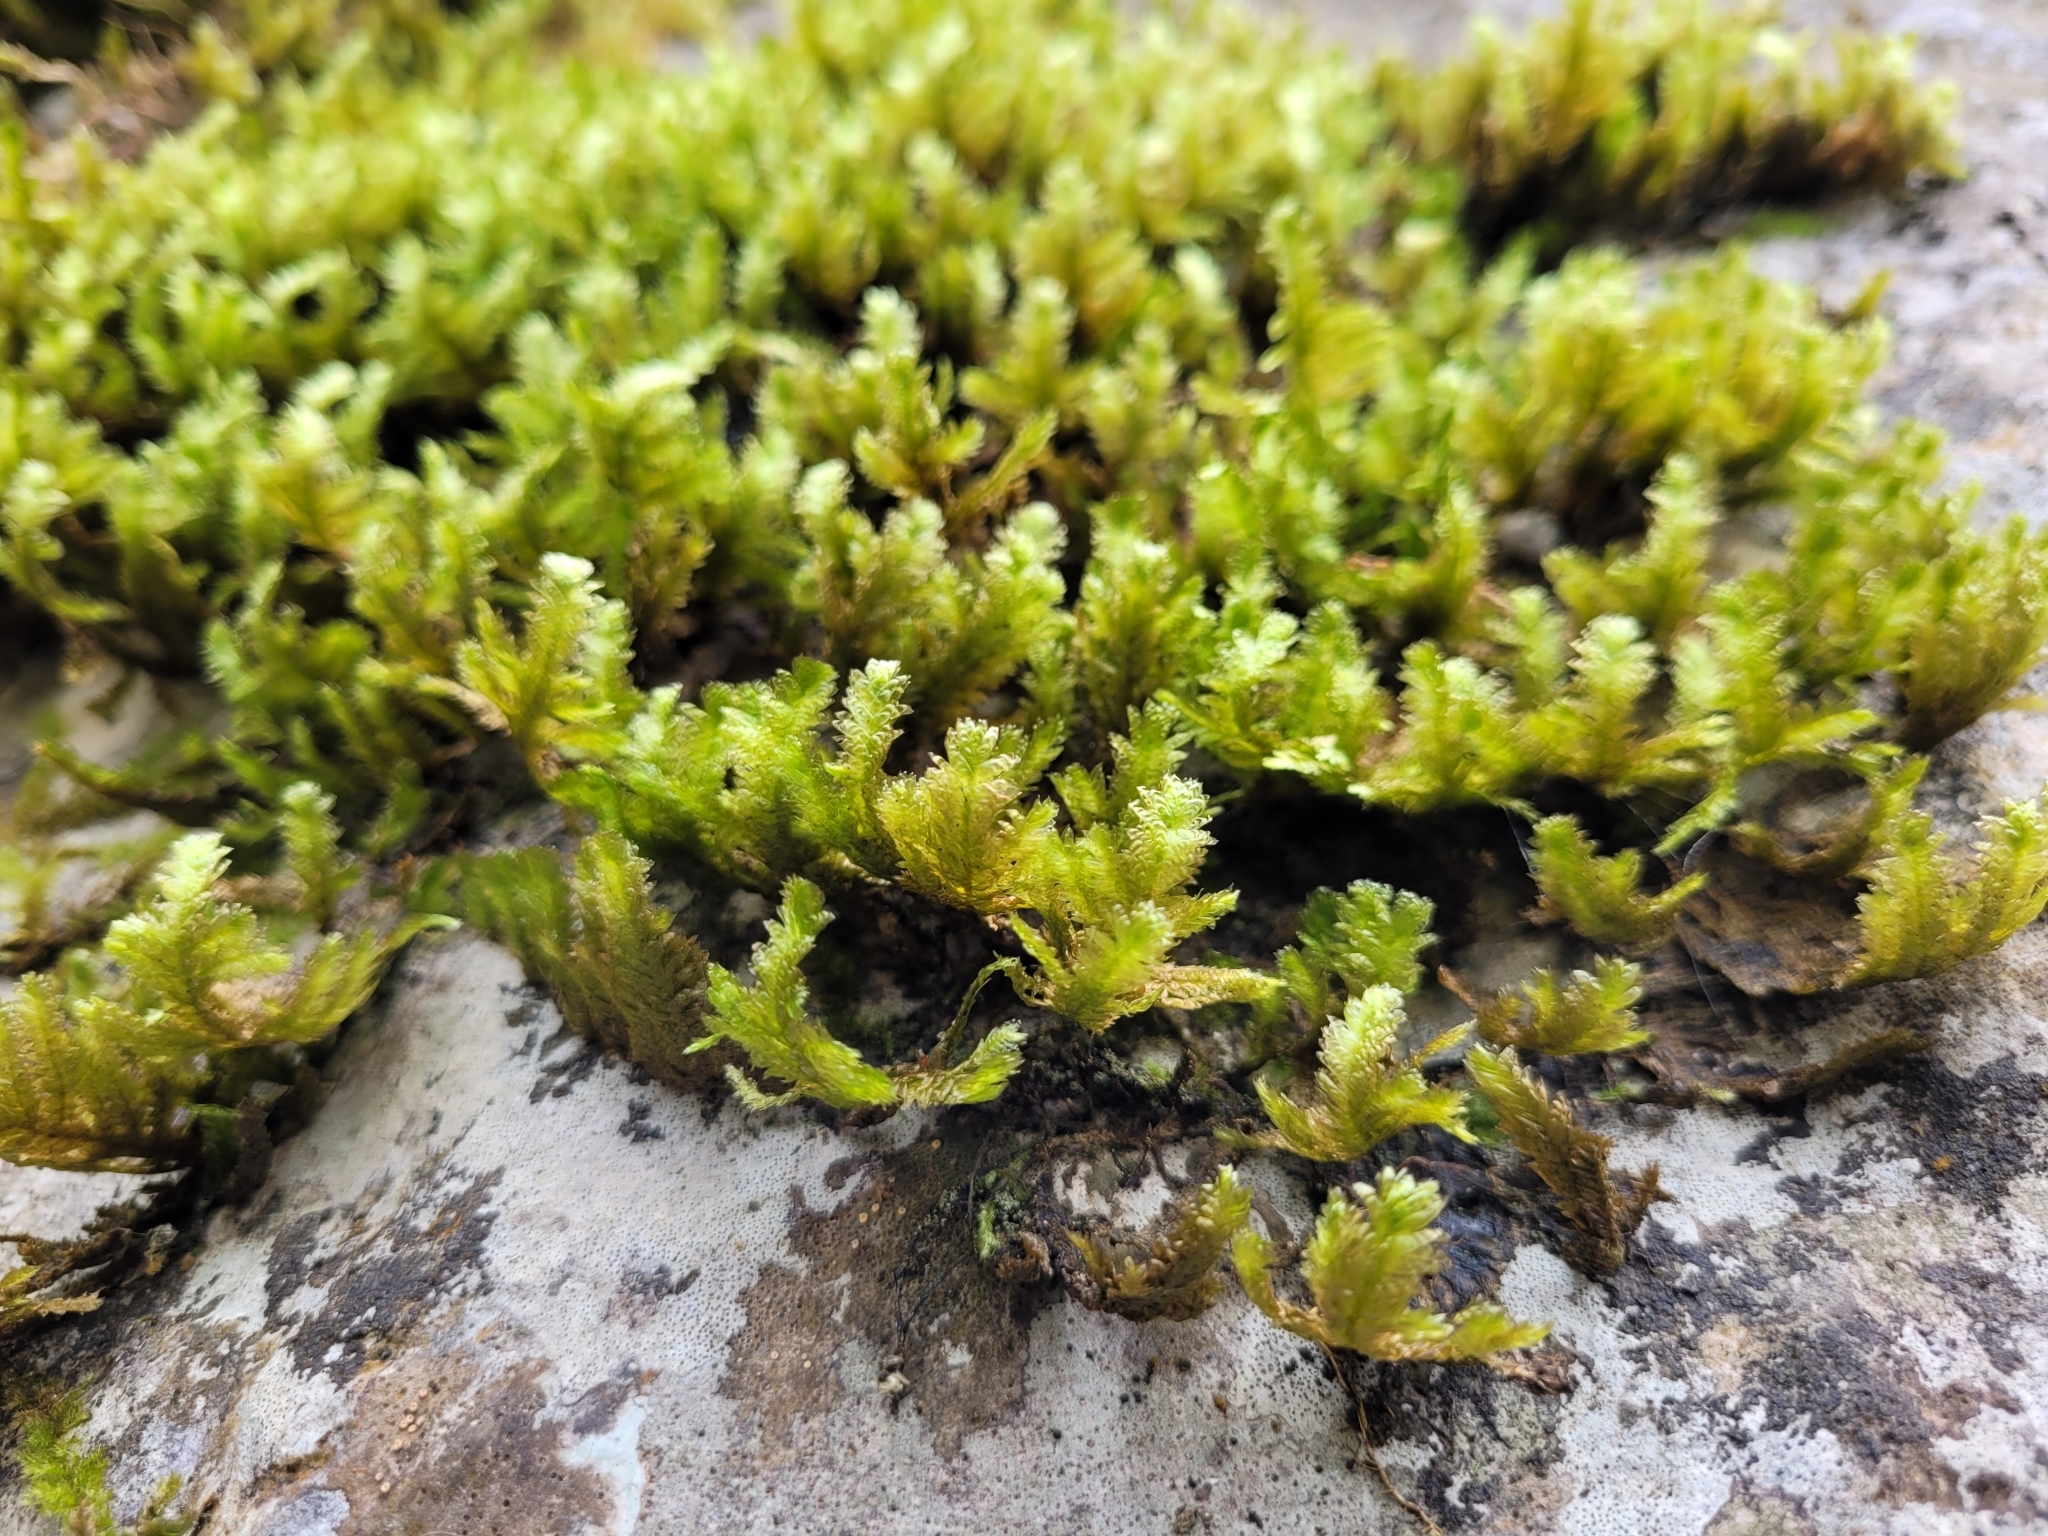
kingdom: Plantae
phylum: Bryophyta
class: Bryopsida
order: Hypnales
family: Neckeraceae
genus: Exsertotheca
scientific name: Exsertotheca crispa
